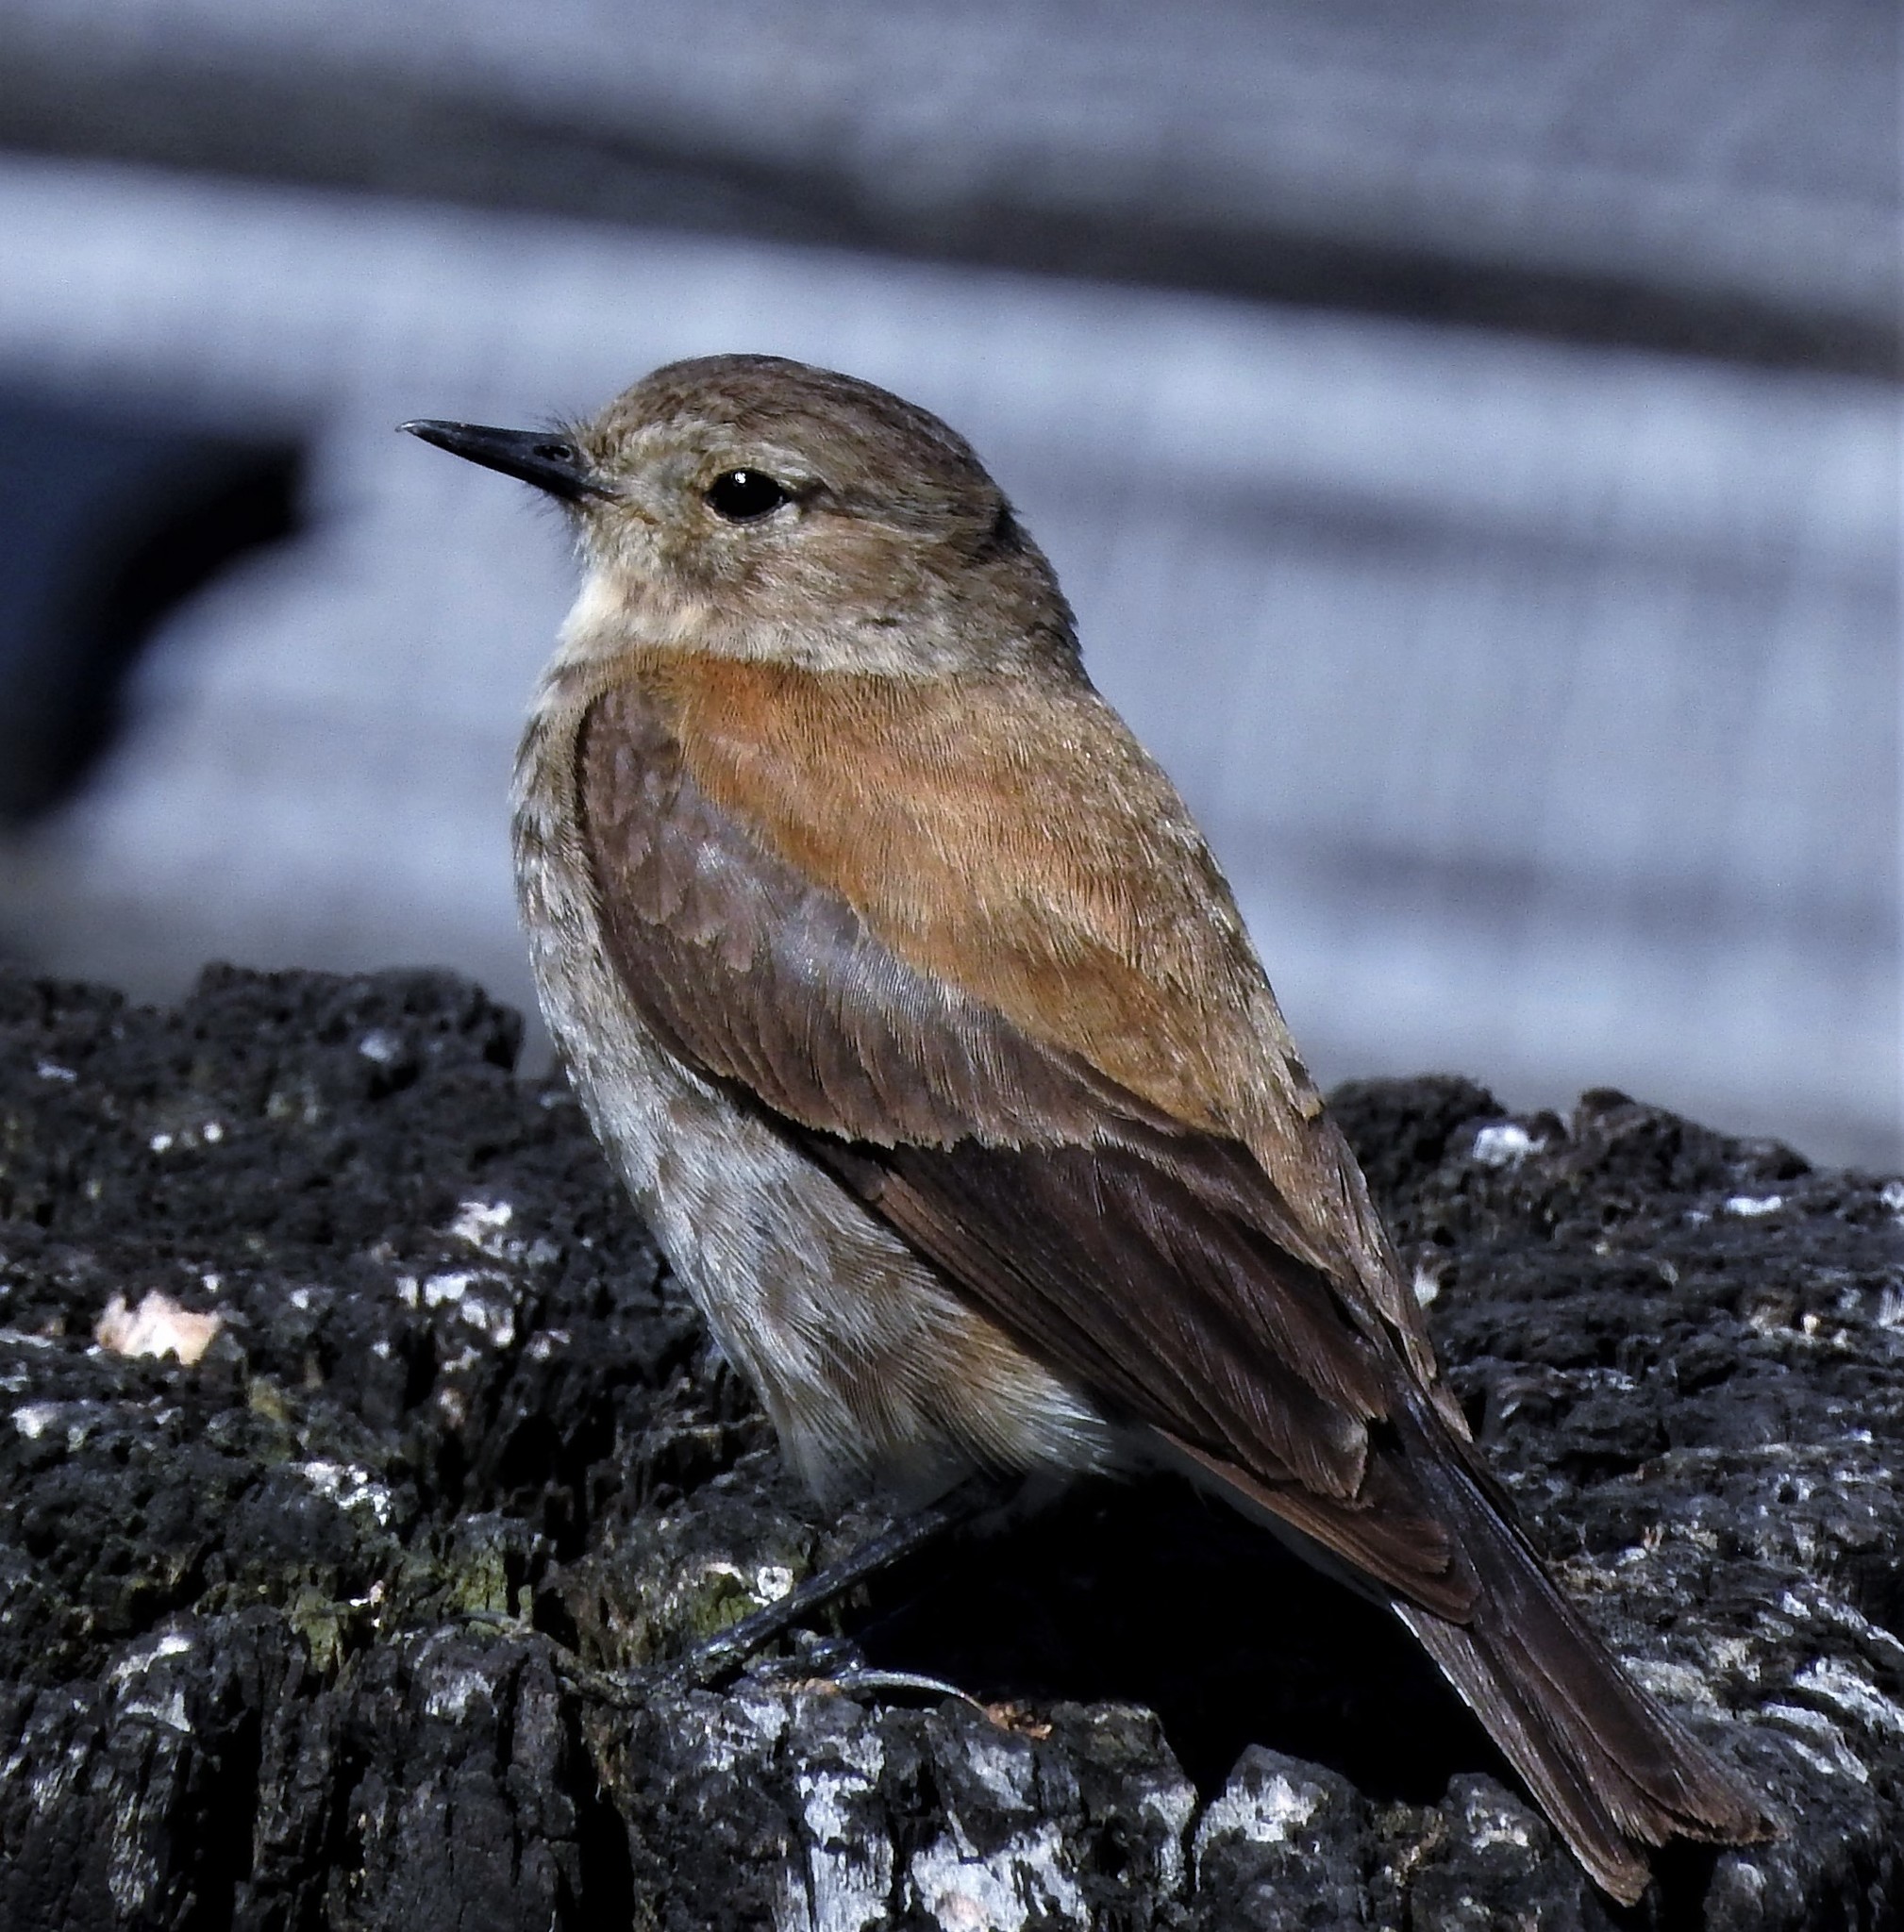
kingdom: Animalia
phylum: Chordata
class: Aves
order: Passeriformes
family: Tyrannidae
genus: Lessonia
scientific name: Lessonia rufa
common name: Austral negrito
